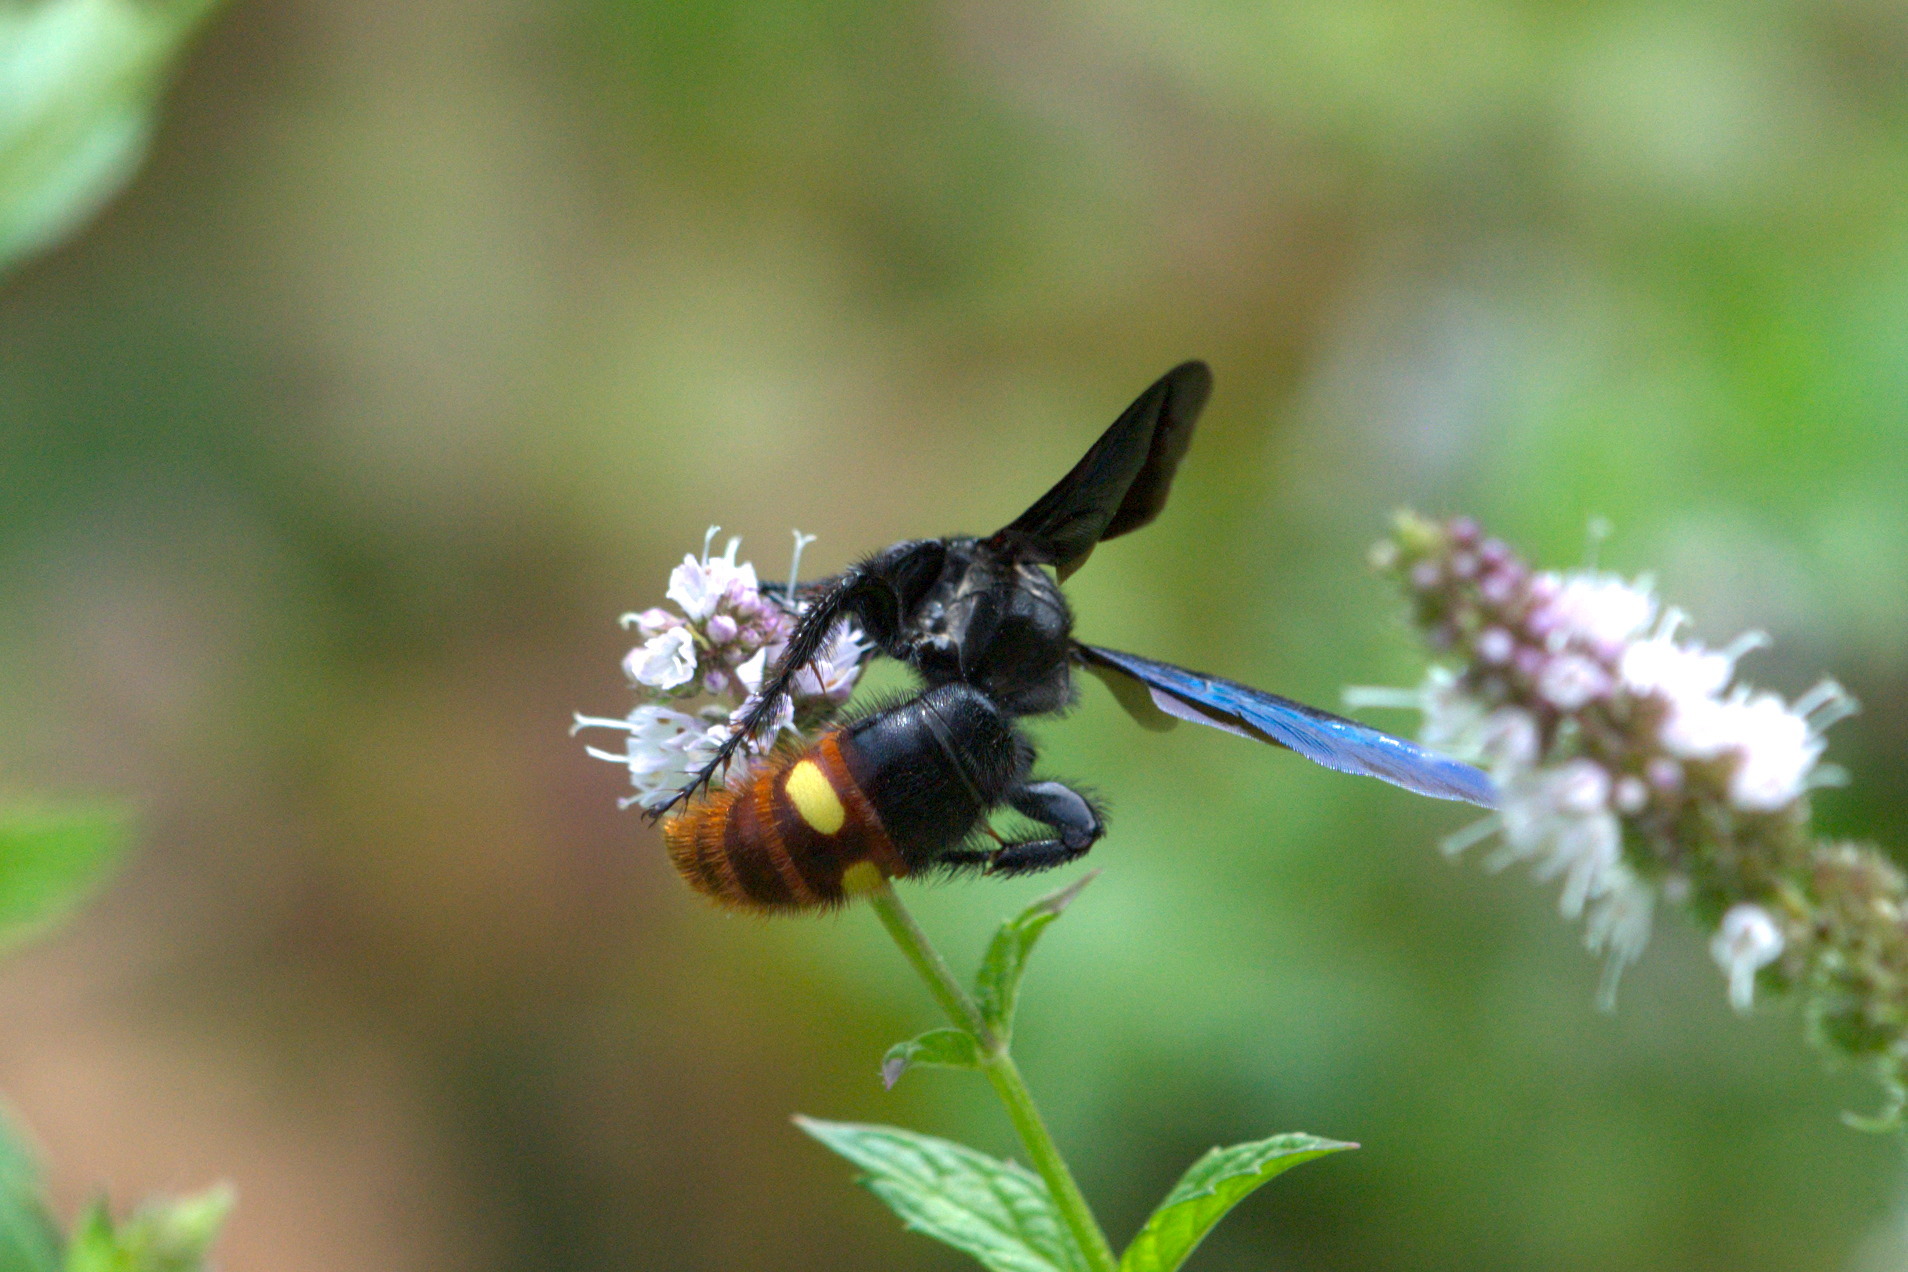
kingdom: Animalia
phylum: Arthropoda
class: Insecta
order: Hymenoptera
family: Scoliidae
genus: Scolia
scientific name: Scolia dubia
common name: Blue-winged scoliid wasp
